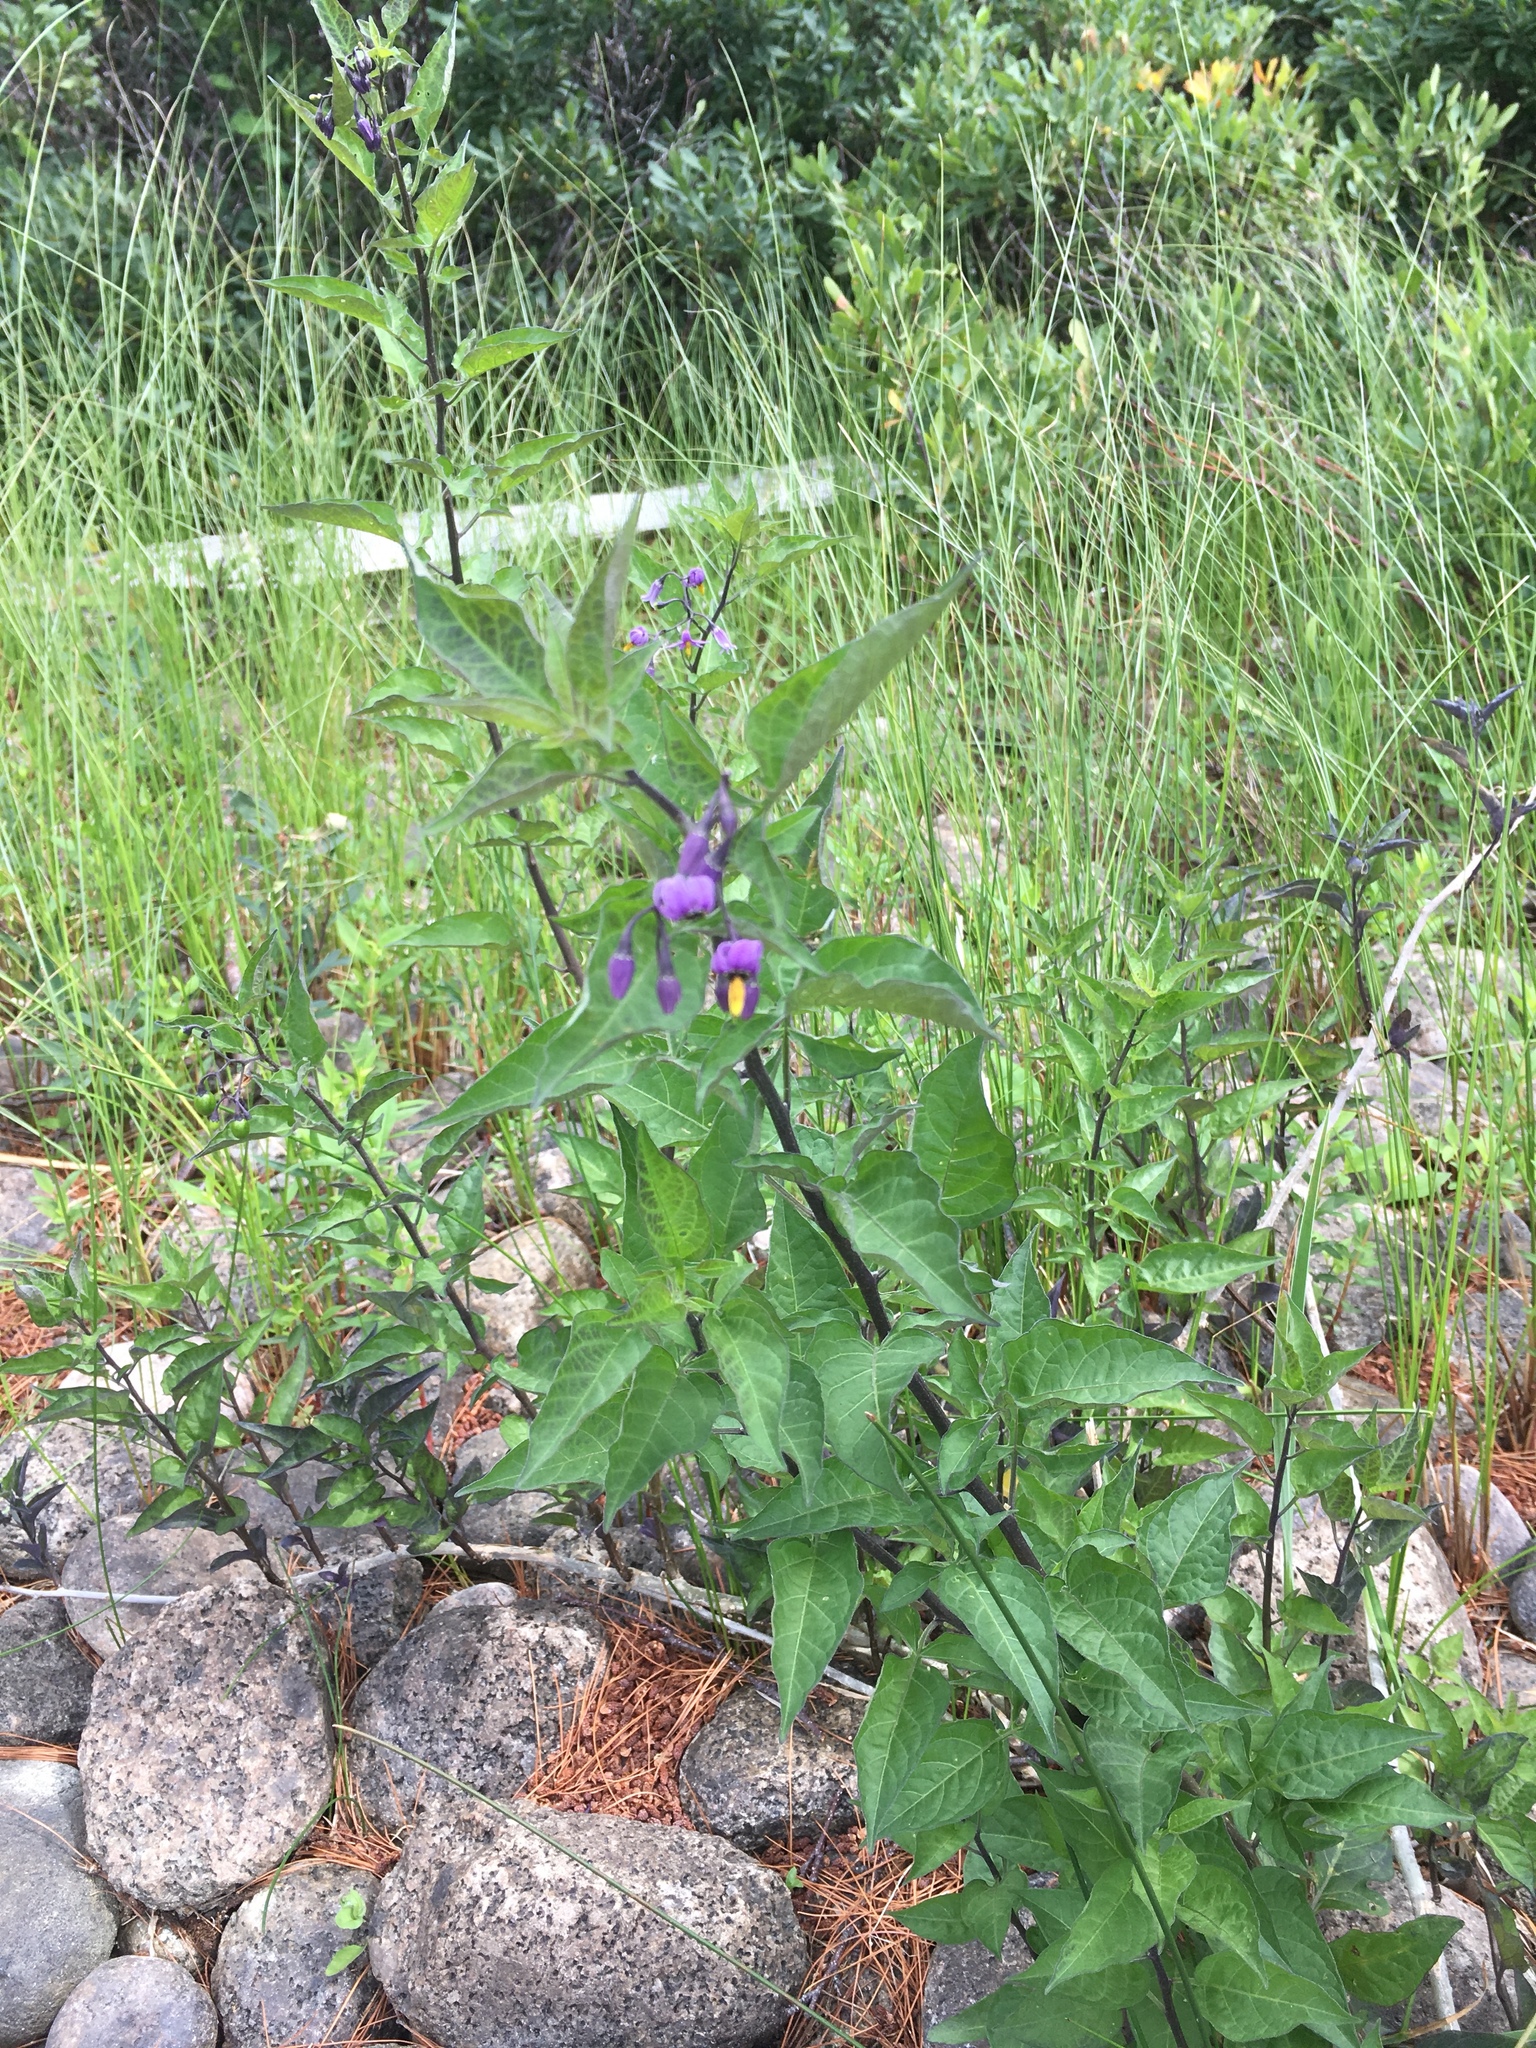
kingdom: Plantae
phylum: Tracheophyta
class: Magnoliopsida
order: Solanales
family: Solanaceae
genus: Solanum
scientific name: Solanum dulcamara
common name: Climbing nightshade
